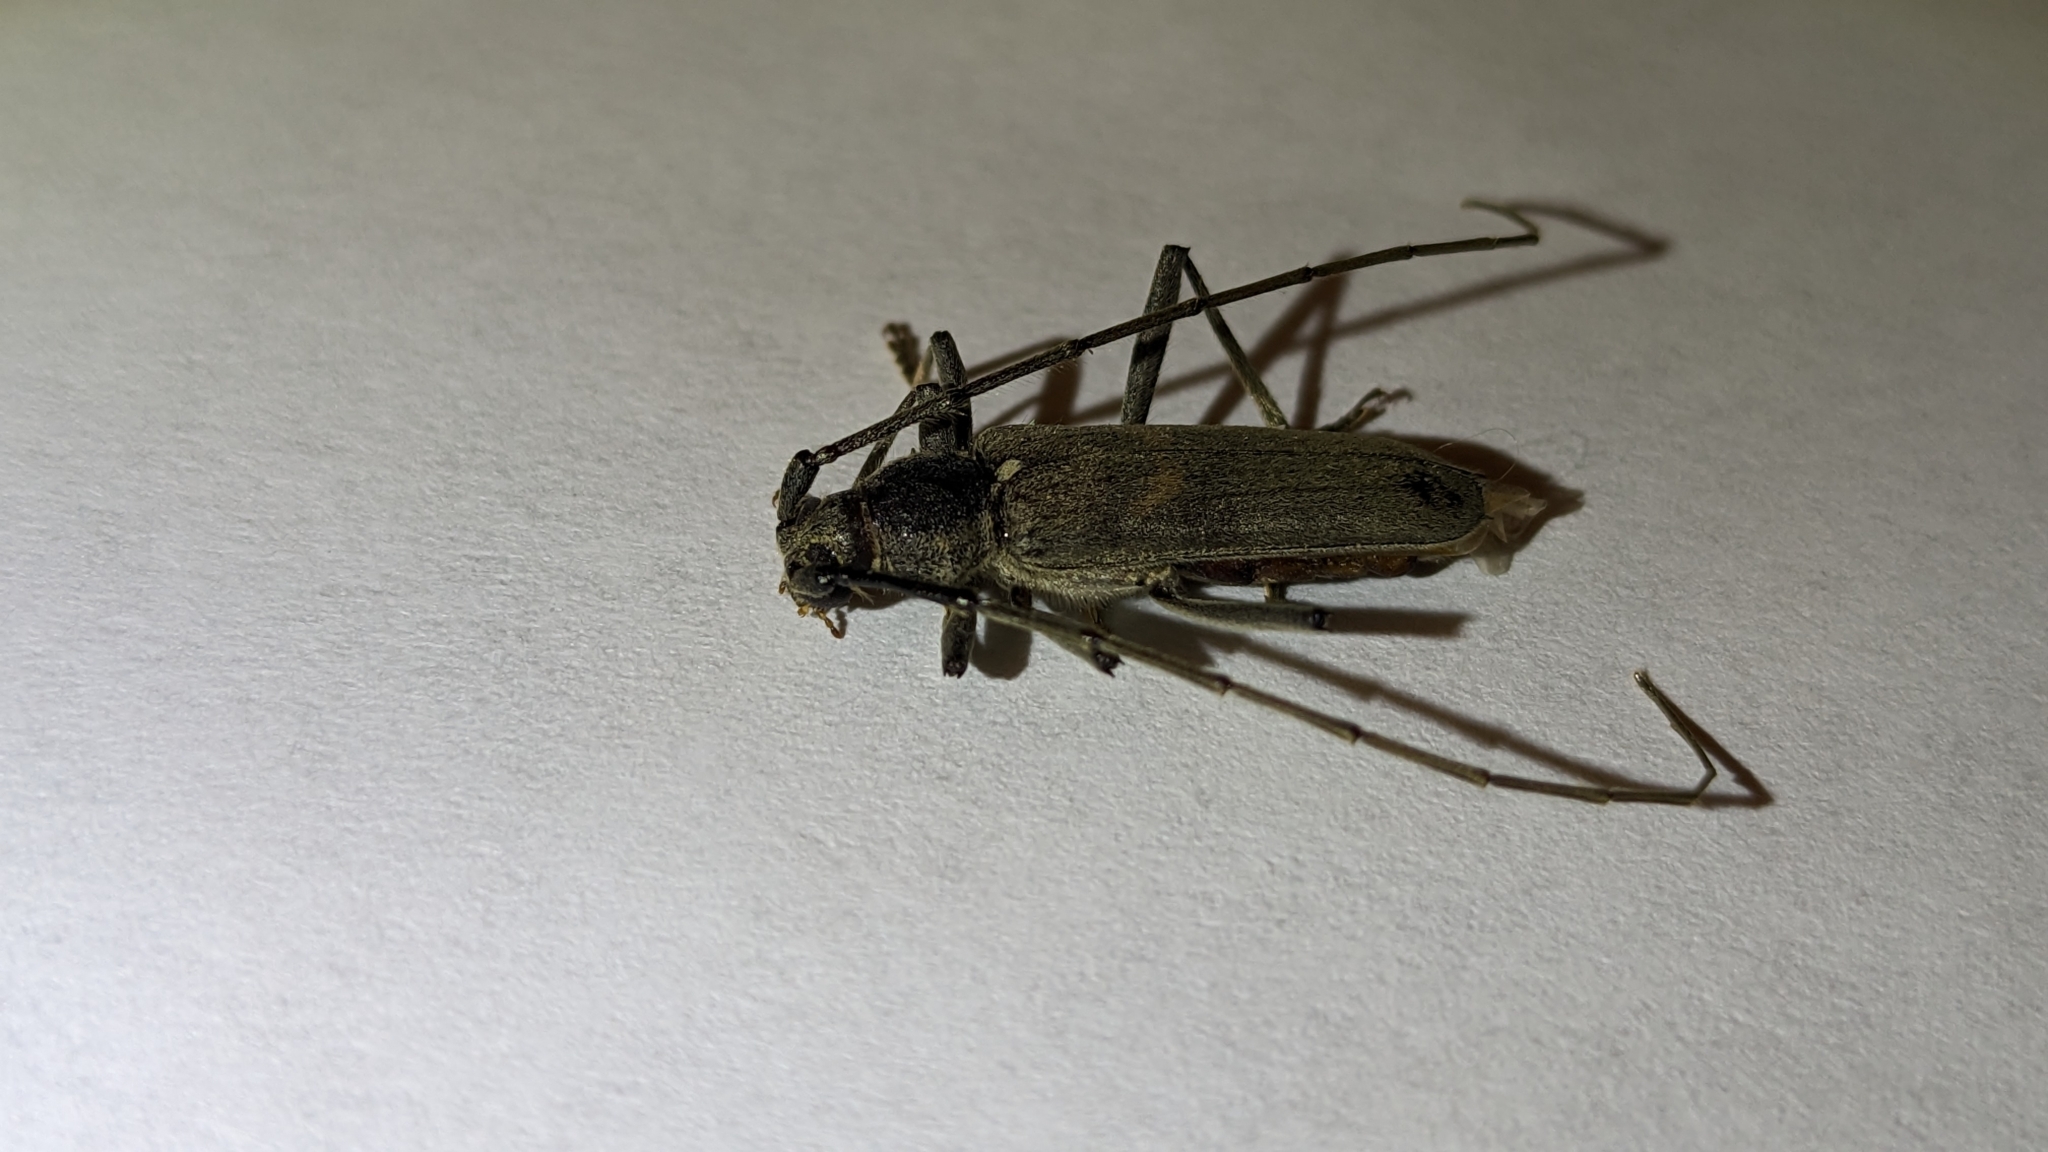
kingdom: Animalia
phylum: Arthropoda
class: Insecta
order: Coleoptera
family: Cerambycidae
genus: Knulliana
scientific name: Knulliana cincta
